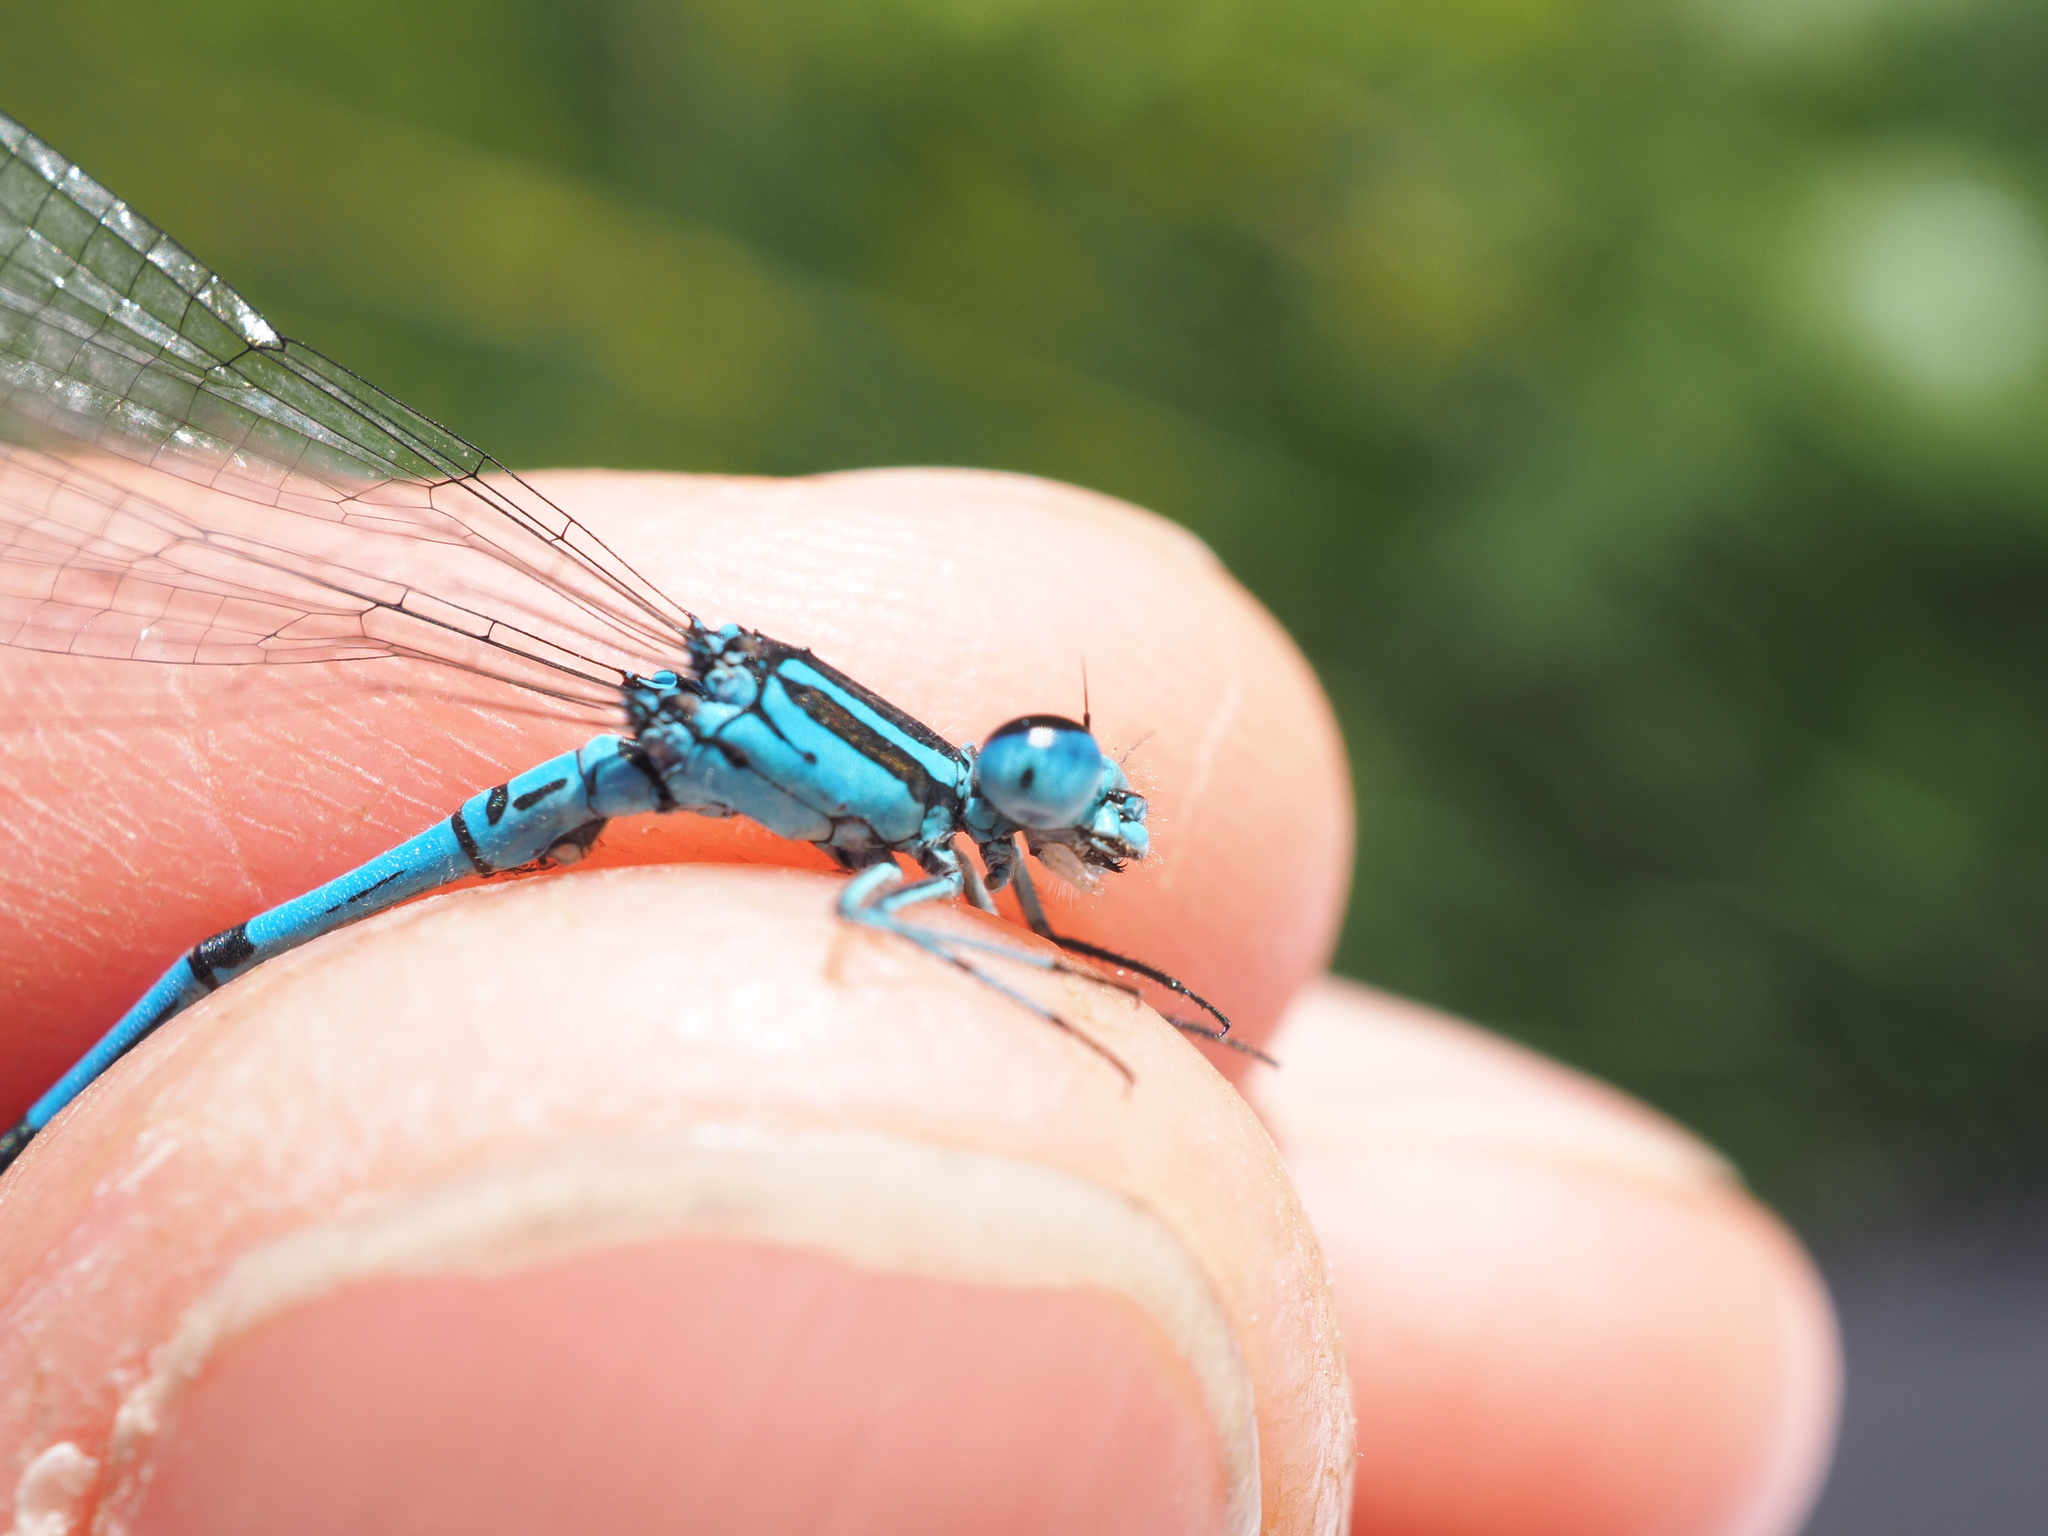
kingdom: Animalia
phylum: Arthropoda
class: Insecta
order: Odonata
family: Coenagrionidae
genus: Coenagrion
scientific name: Coenagrion puella
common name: Azure damselfly
